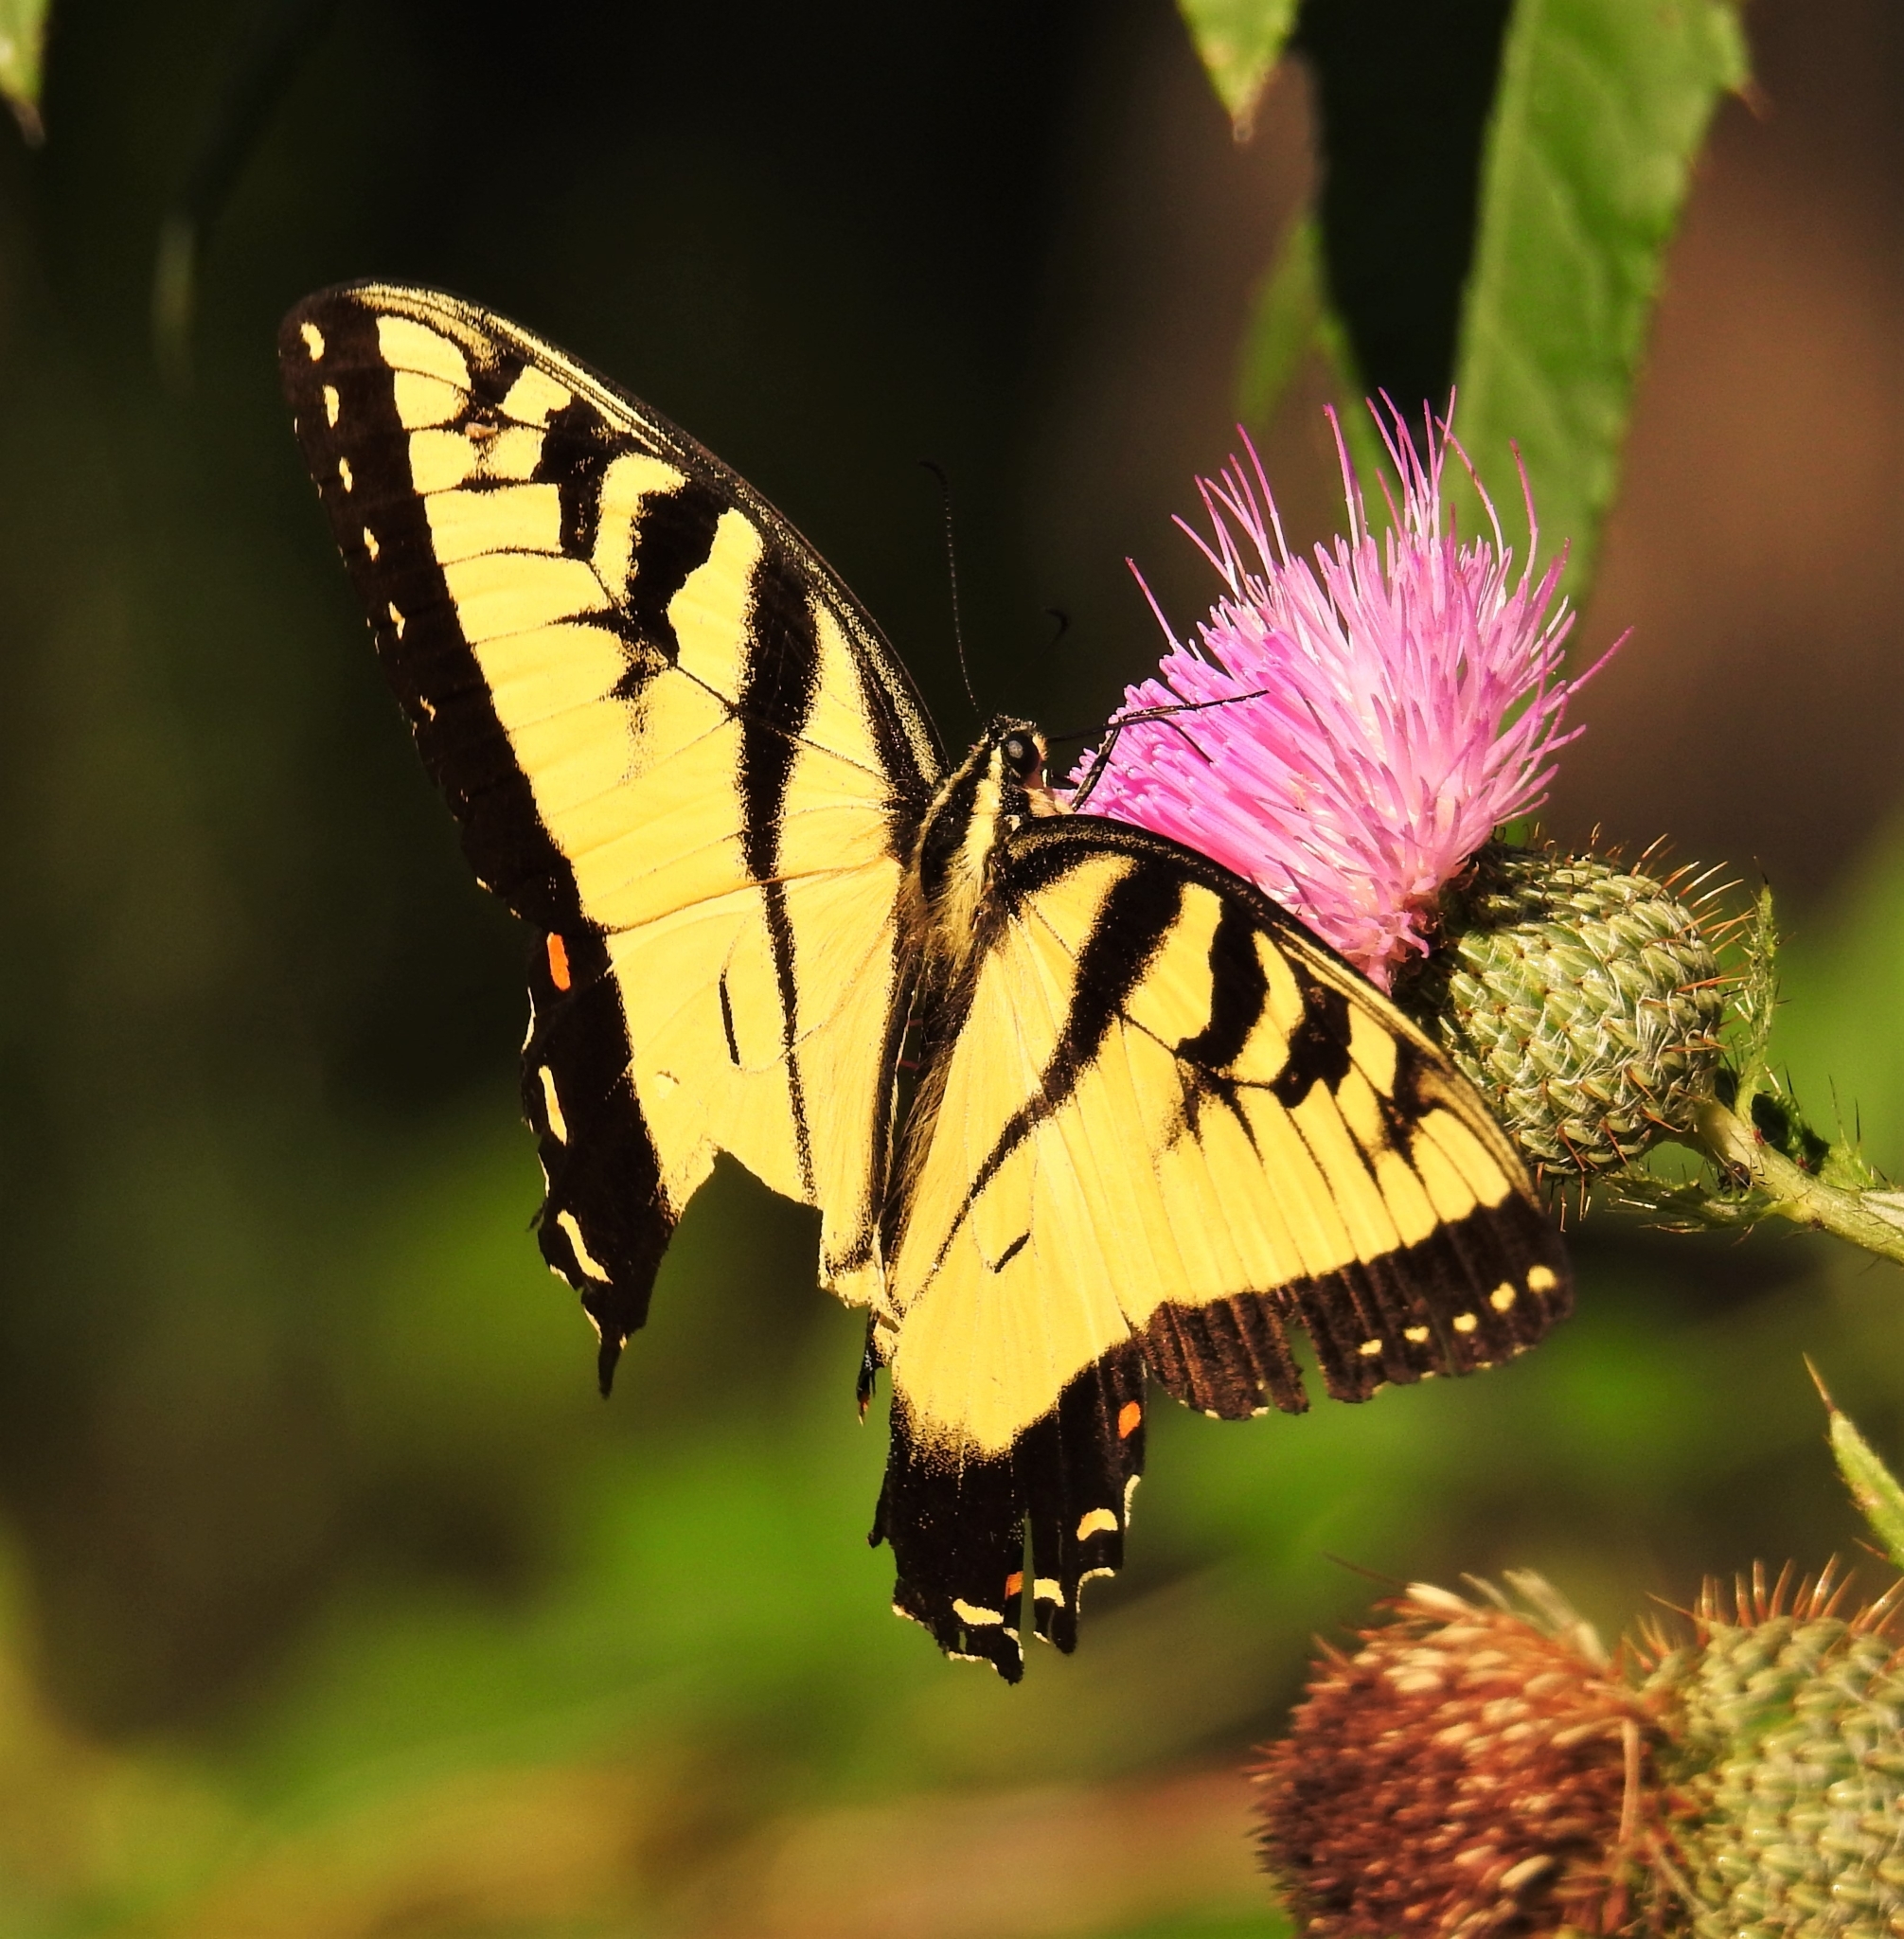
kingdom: Animalia
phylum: Arthropoda
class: Insecta
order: Lepidoptera
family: Papilionidae
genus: Papilio
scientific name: Papilio glaucus
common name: Tiger swallowtail
